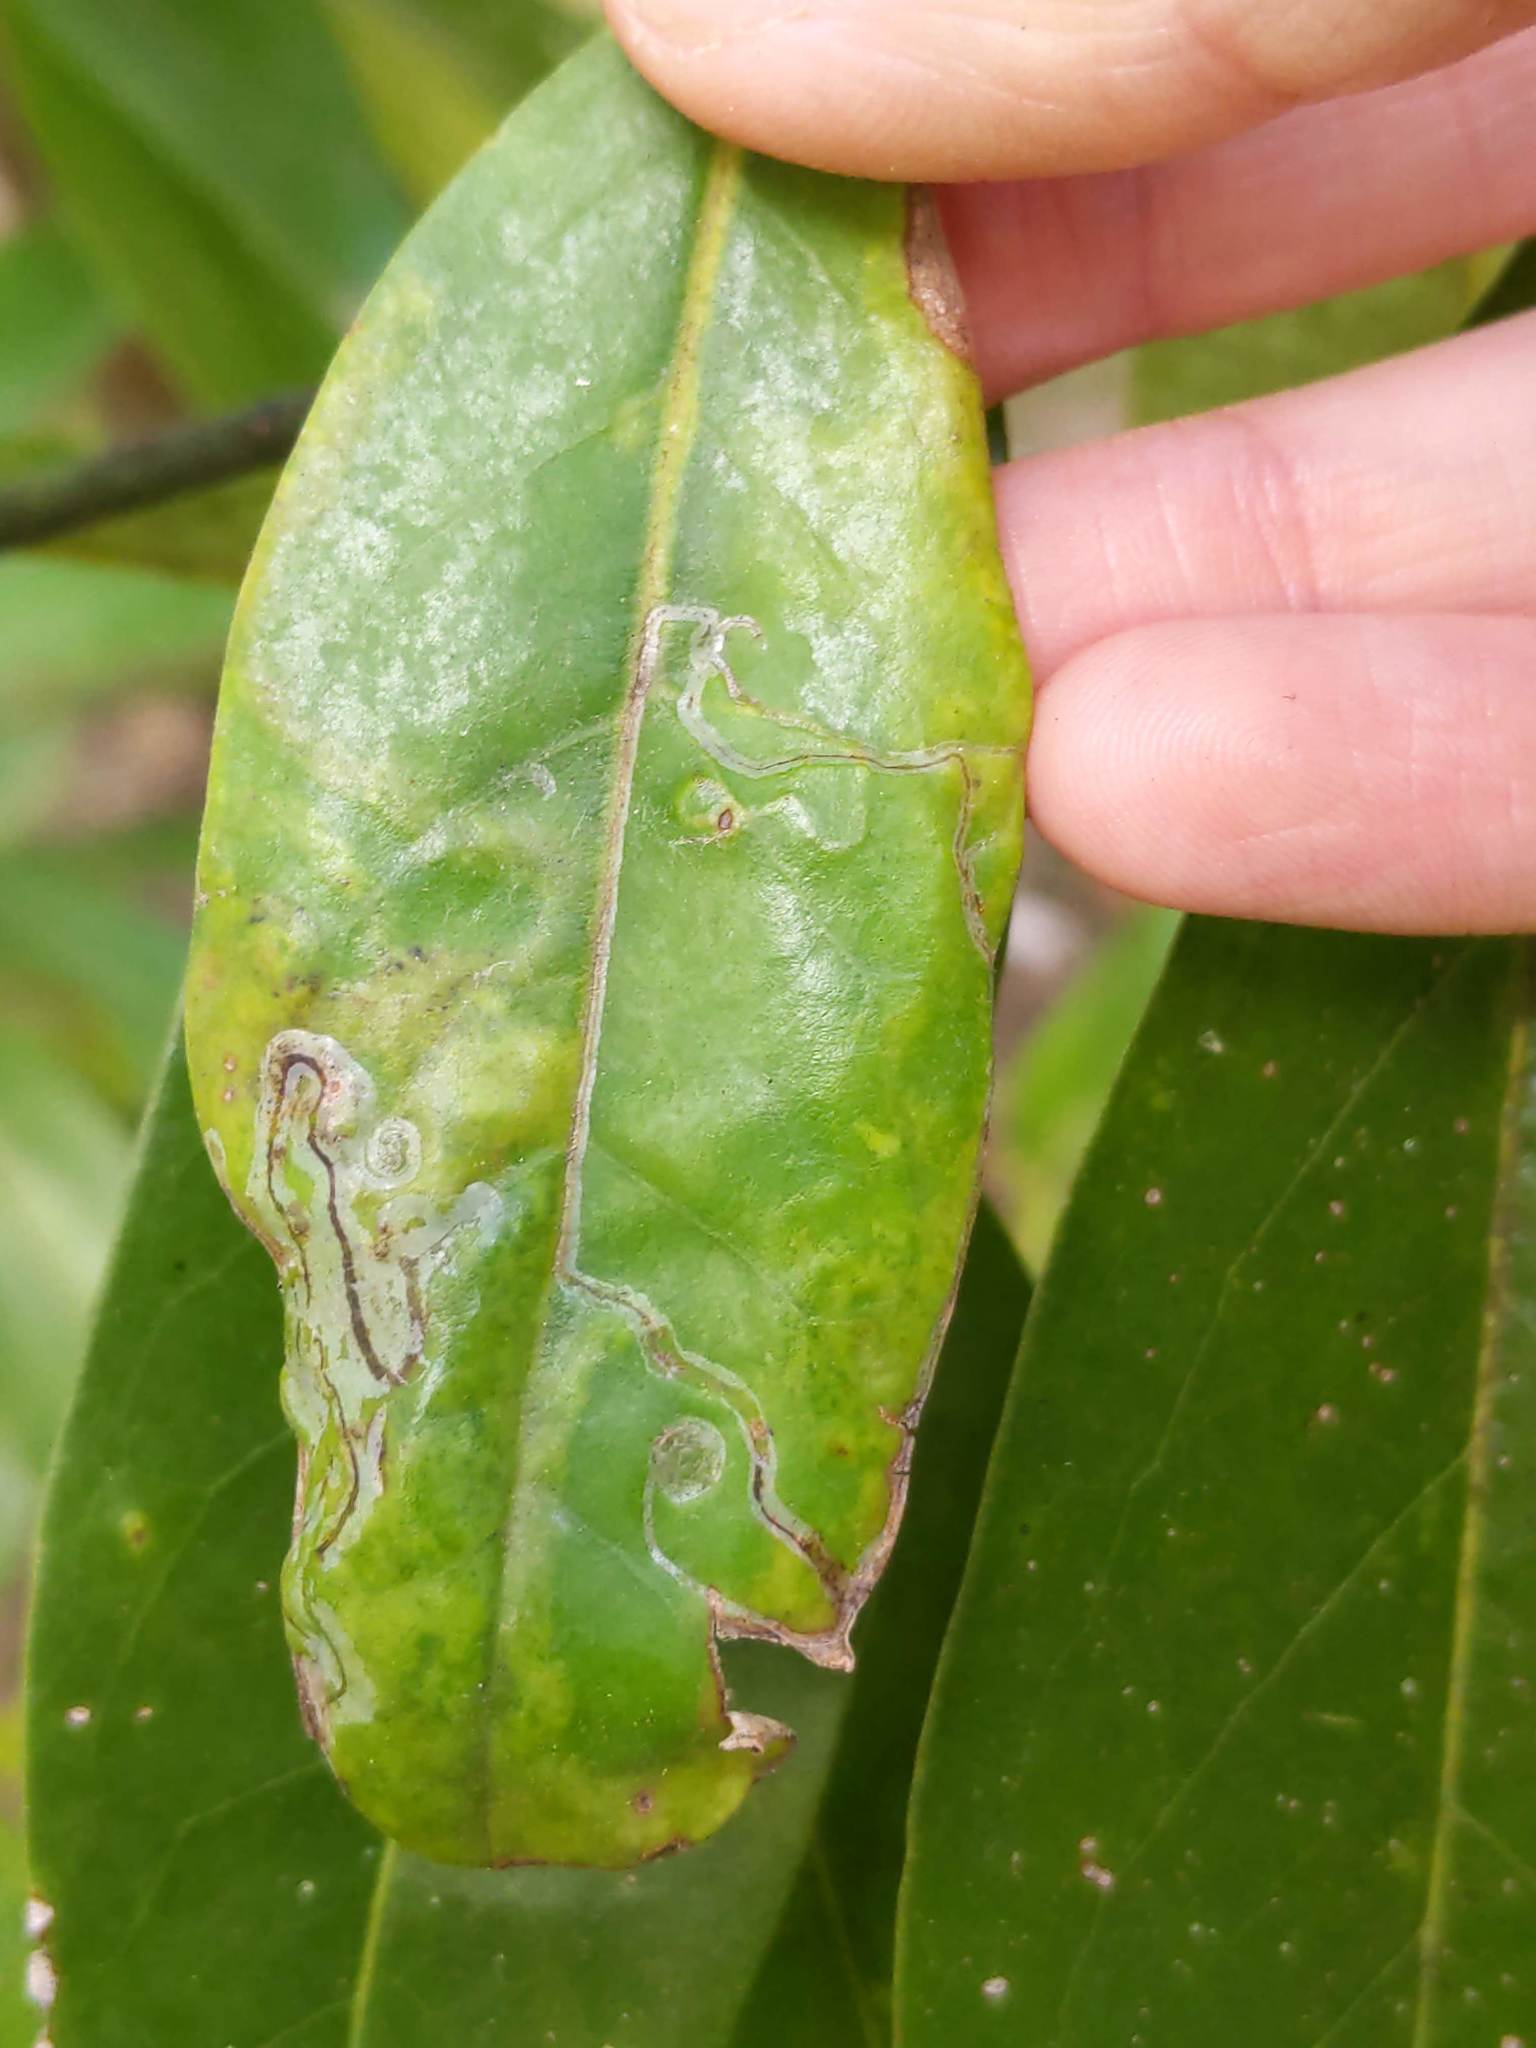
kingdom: Animalia
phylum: Arthropoda
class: Insecta
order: Lepidoptera
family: Gracillariidae
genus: Phyllocnistis
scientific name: Phyllocnistis liriodendronella
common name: Tulip tree leaf miner
